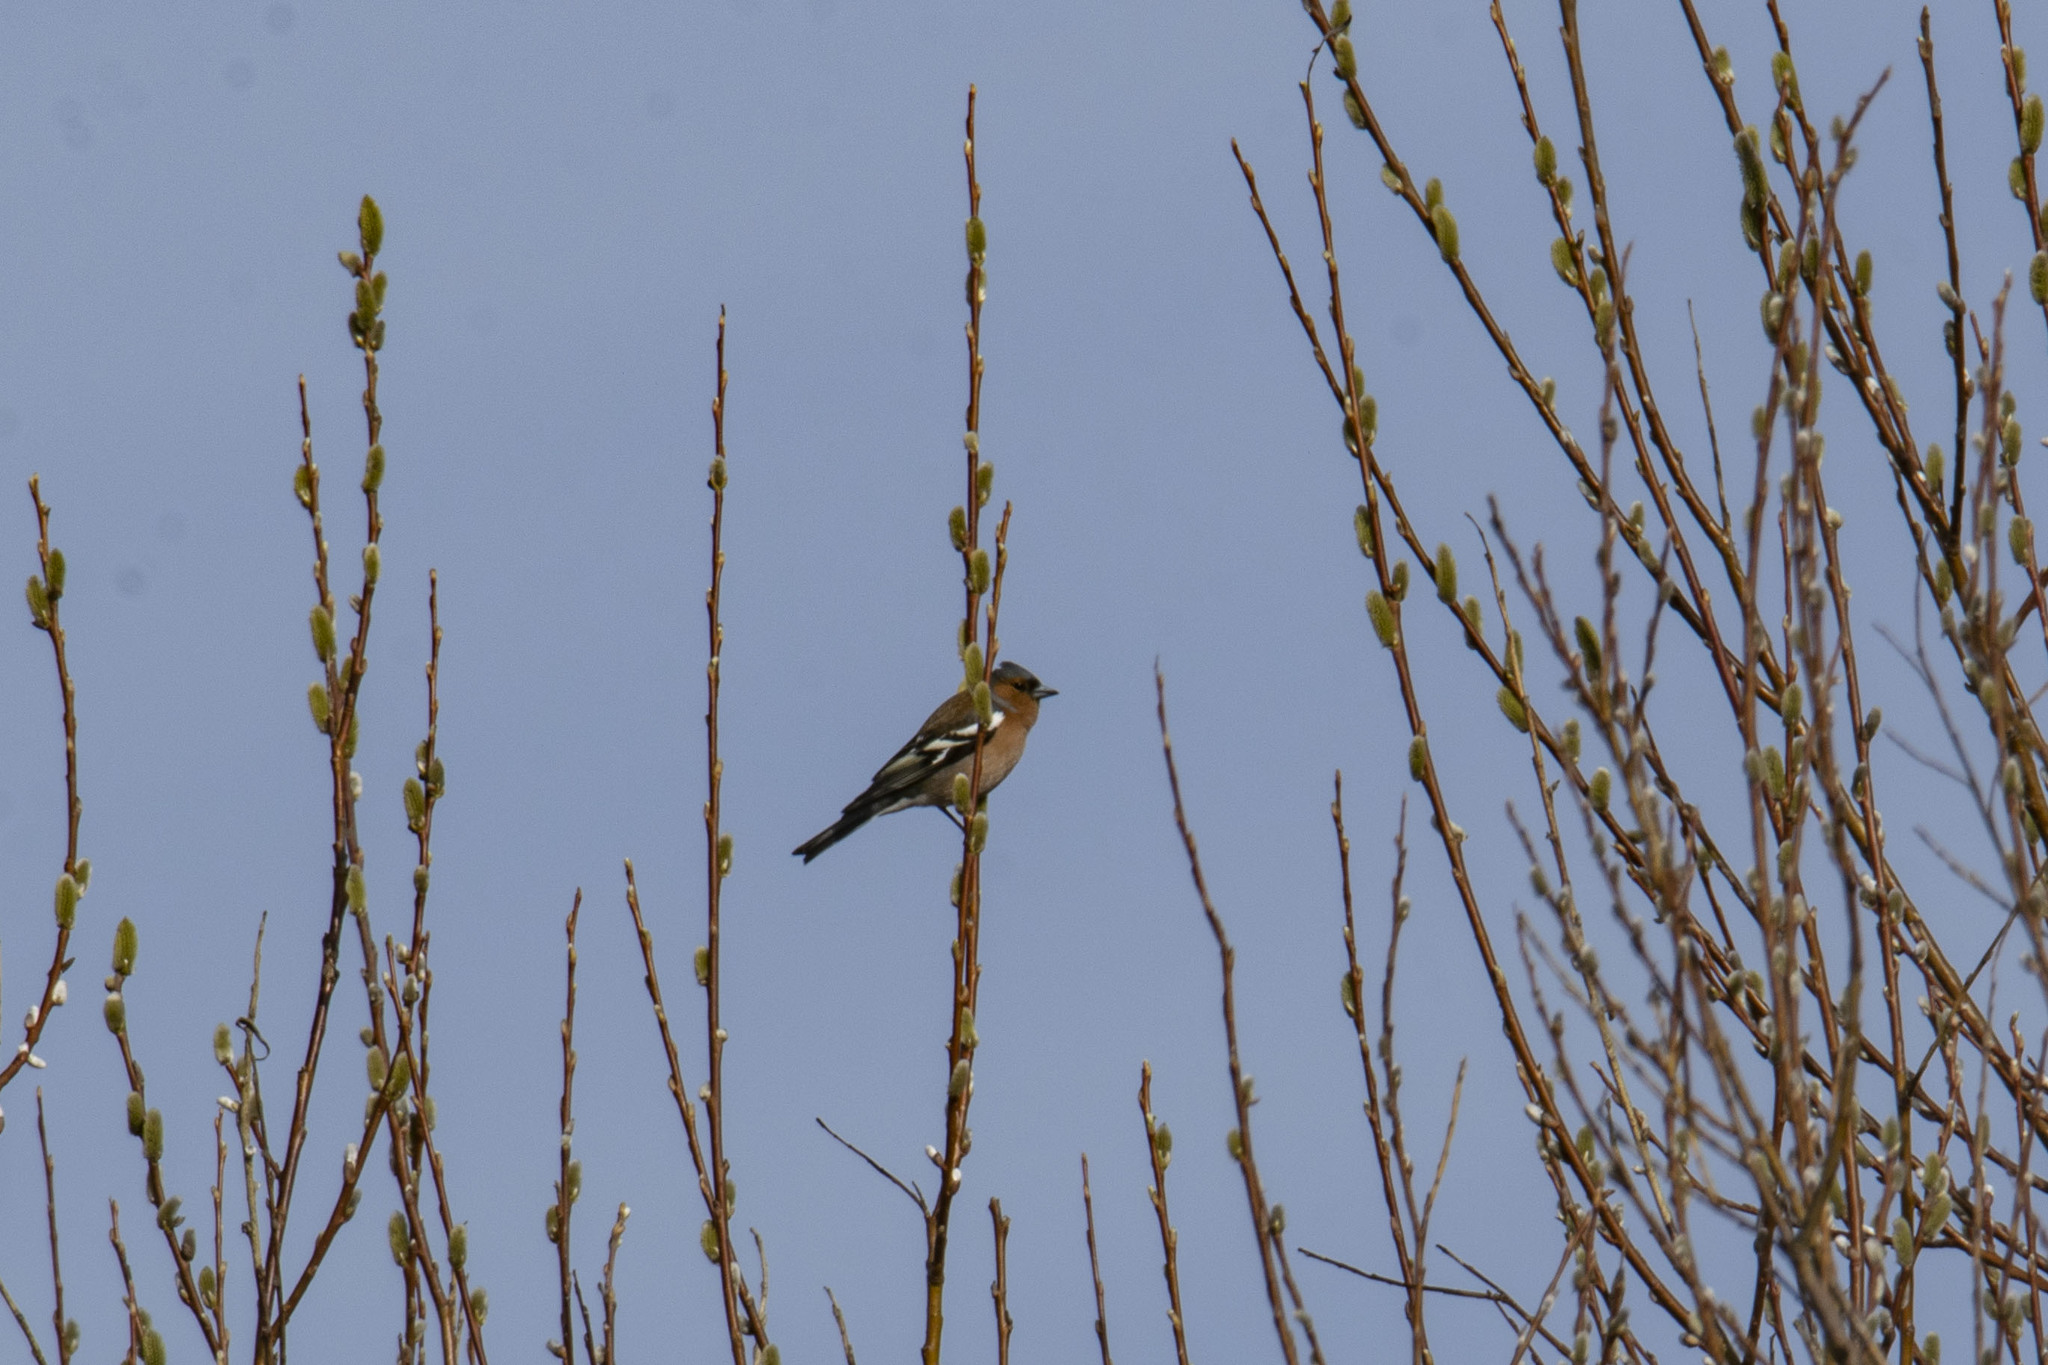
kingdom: Animalia
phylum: Chordata
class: Aves
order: Passeriformes
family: Fringillidae
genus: Fringilla
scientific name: Fringilla coelebs
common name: Common chaffinch
